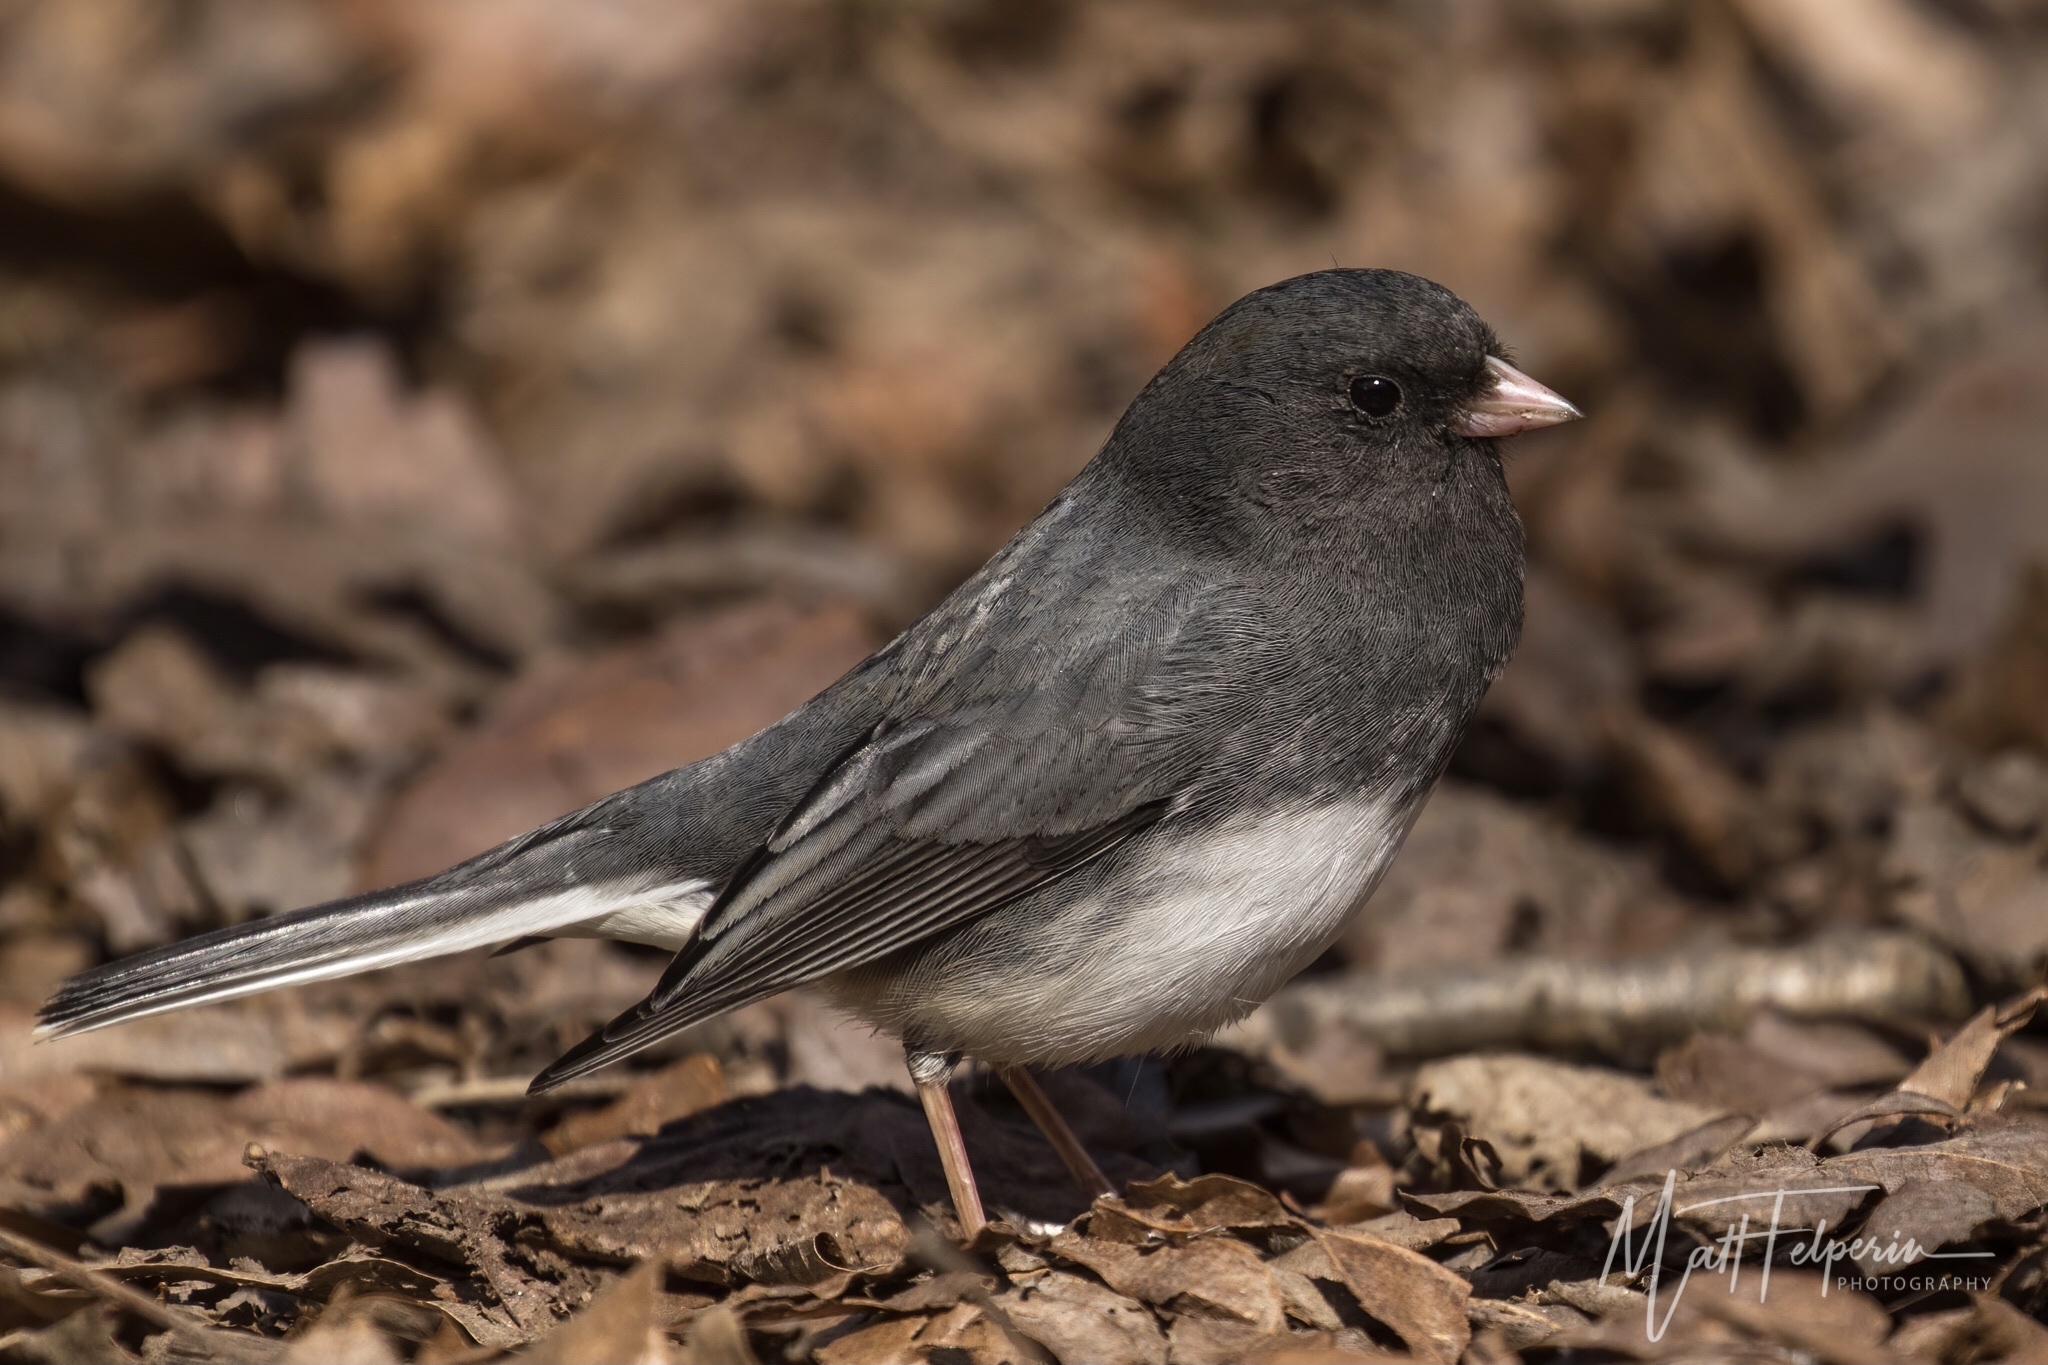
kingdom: Animalia
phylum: Chordata
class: Aves
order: Passeriformes
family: Passerellidae
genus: Junco
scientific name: Junco hyemalis
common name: Dark-eyed junco
